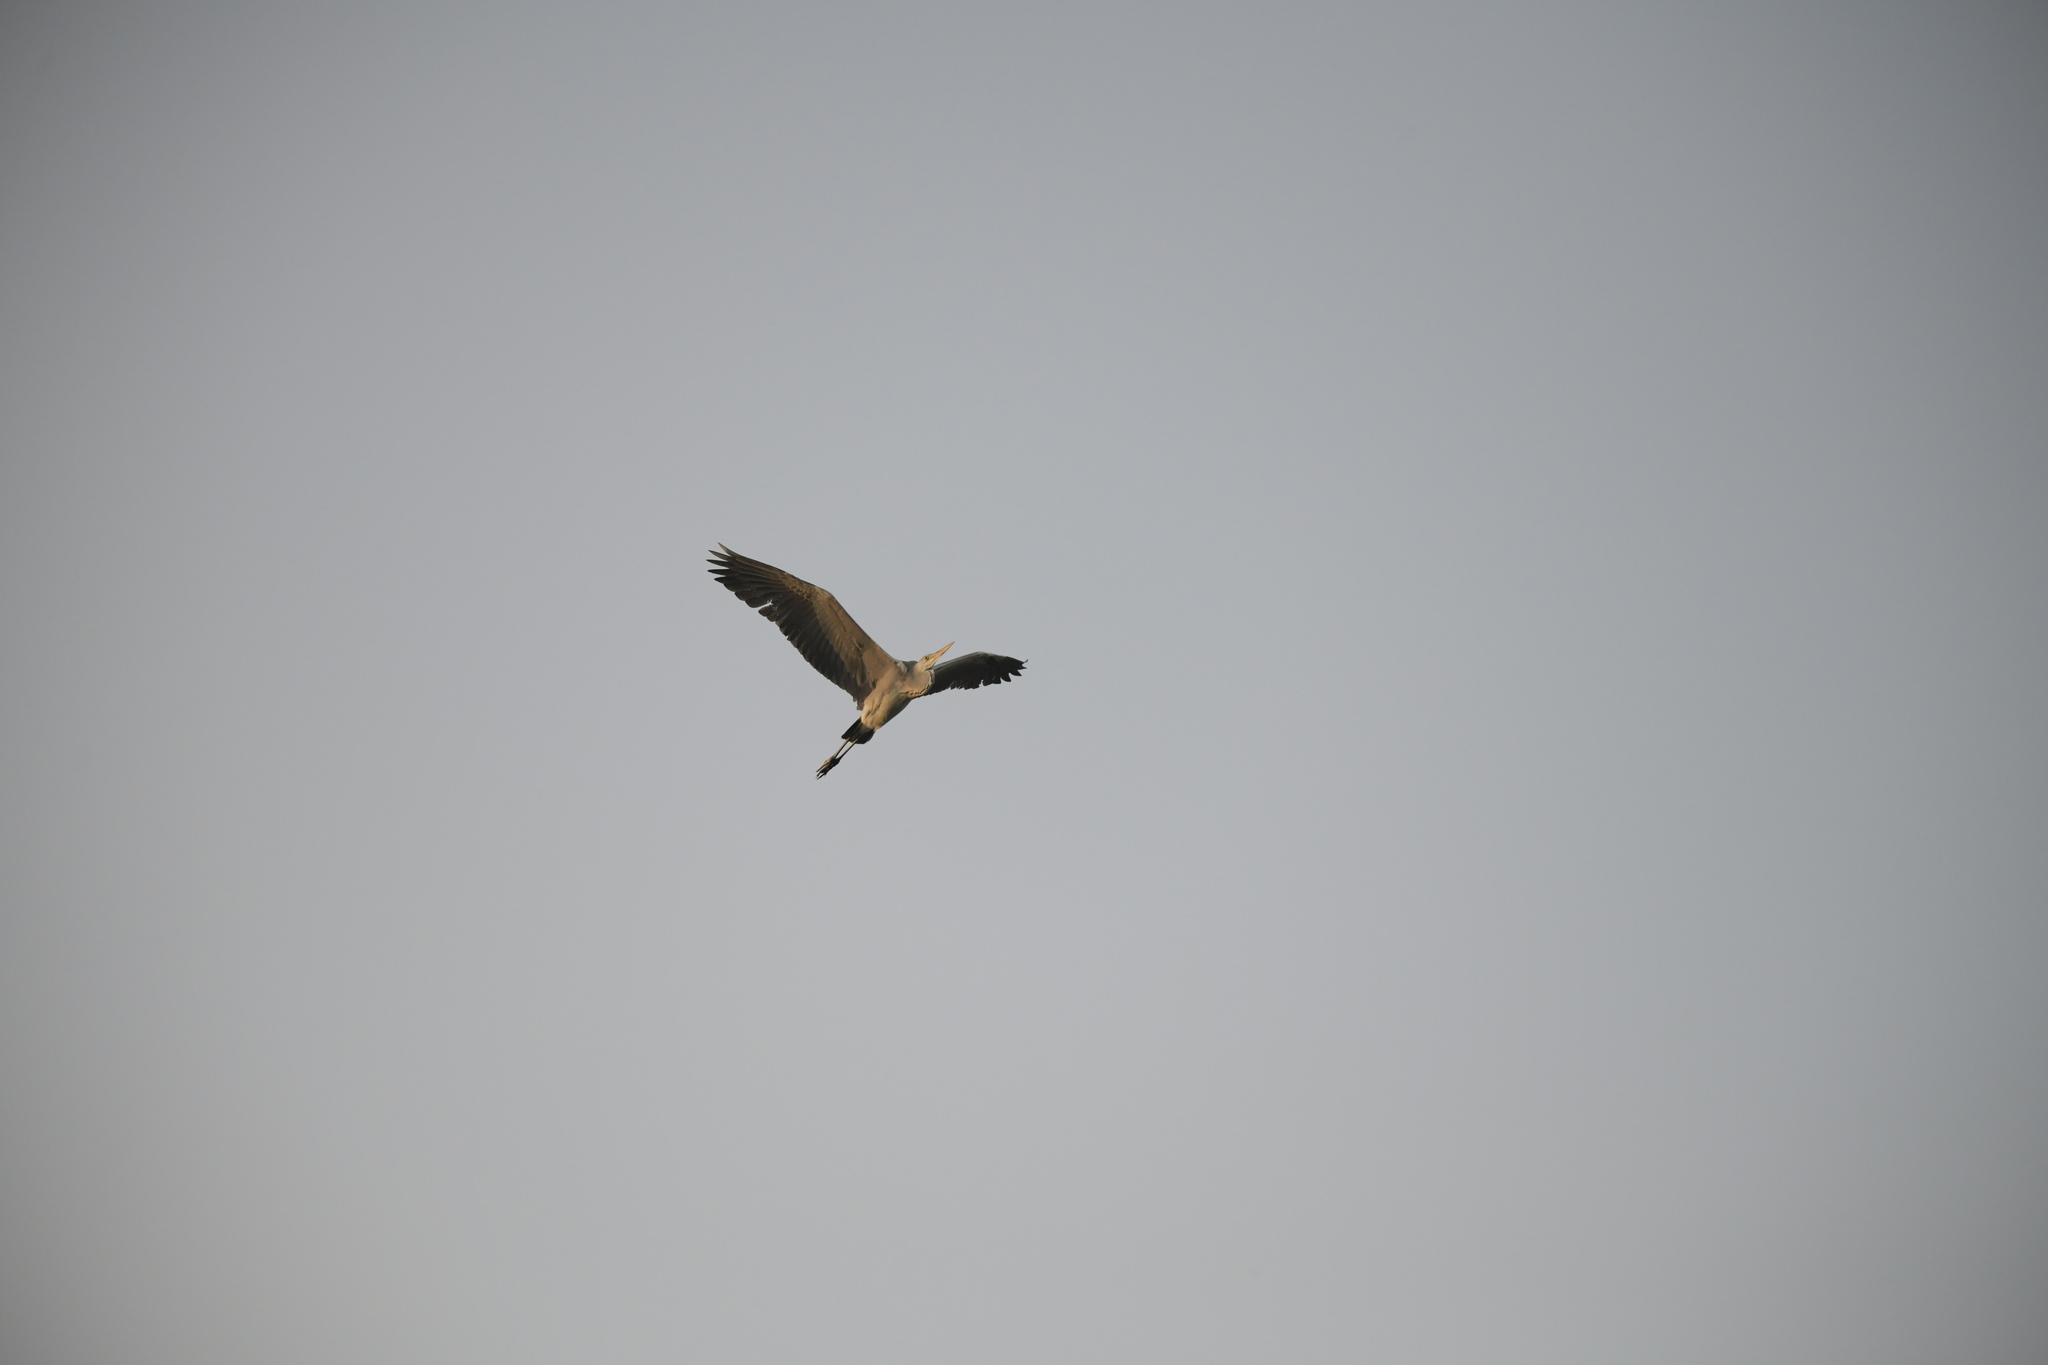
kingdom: Animalia
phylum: Chordata
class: Aves
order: Pelecaniformes
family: Ardeidae
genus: Ardea
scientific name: Ardea cinerea
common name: Grey heron
